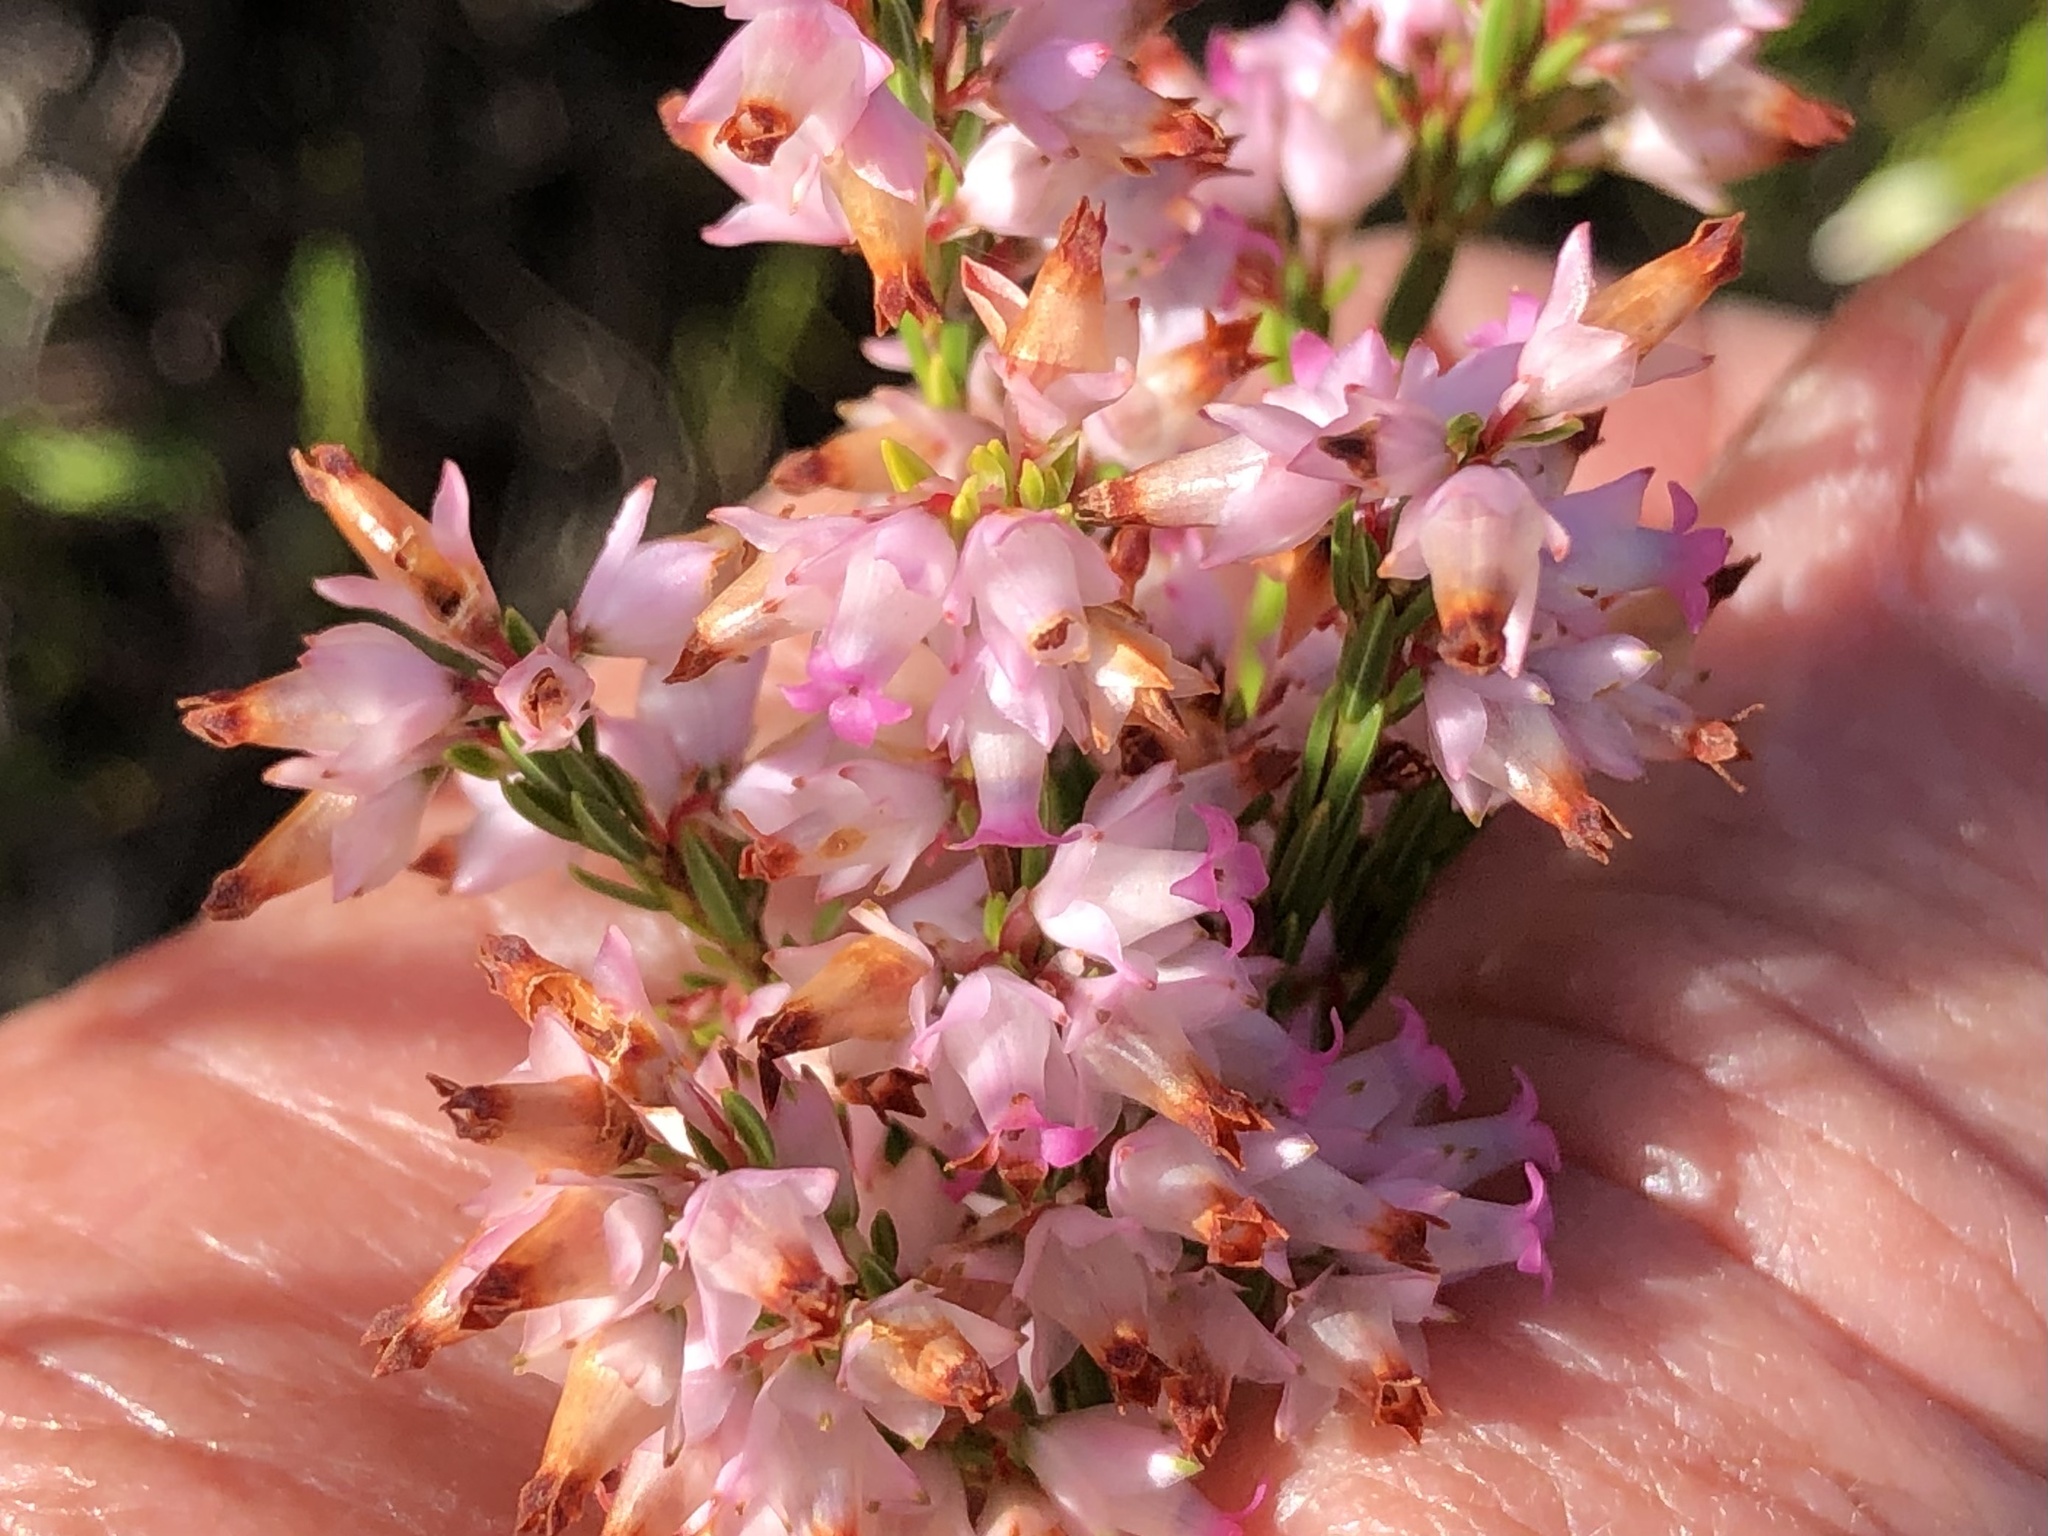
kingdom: Plantae
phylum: Tracheophyta
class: Magnoliopsida
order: Ericales
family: Ericaceae
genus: Erica
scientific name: Erica lutea
